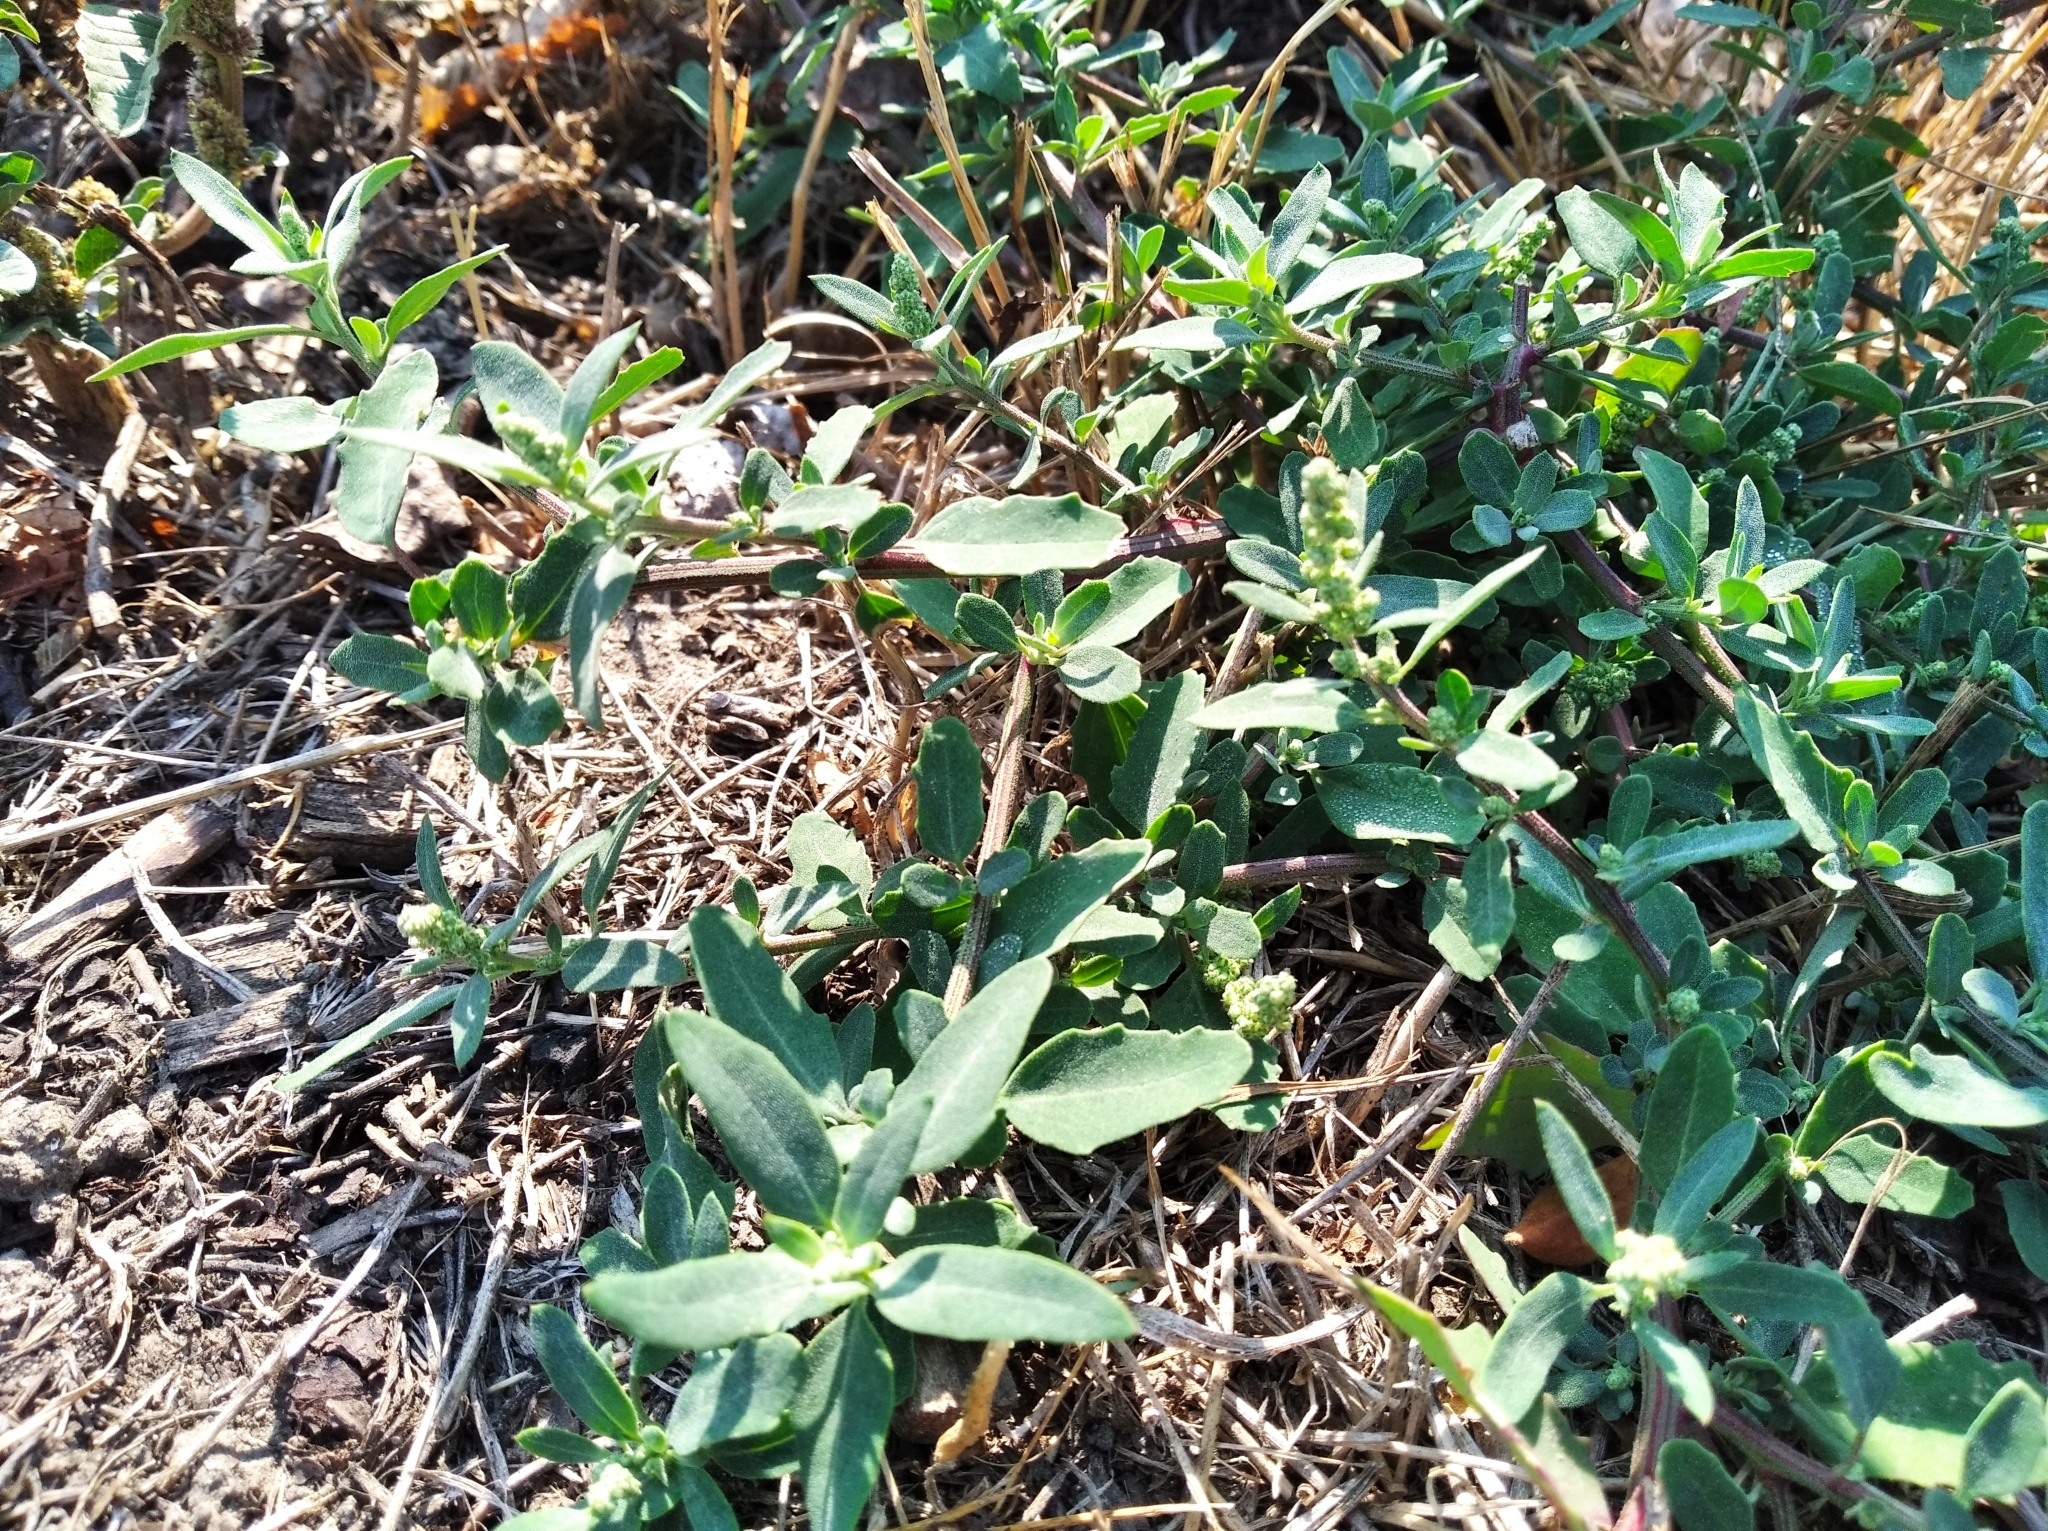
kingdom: Plantae
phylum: Tracheophyta
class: Magnoliopsida
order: Caryophyllales
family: Amaranthaceae
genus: Chenopodium
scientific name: Chenopodium betaceum
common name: Striped goosefoot
